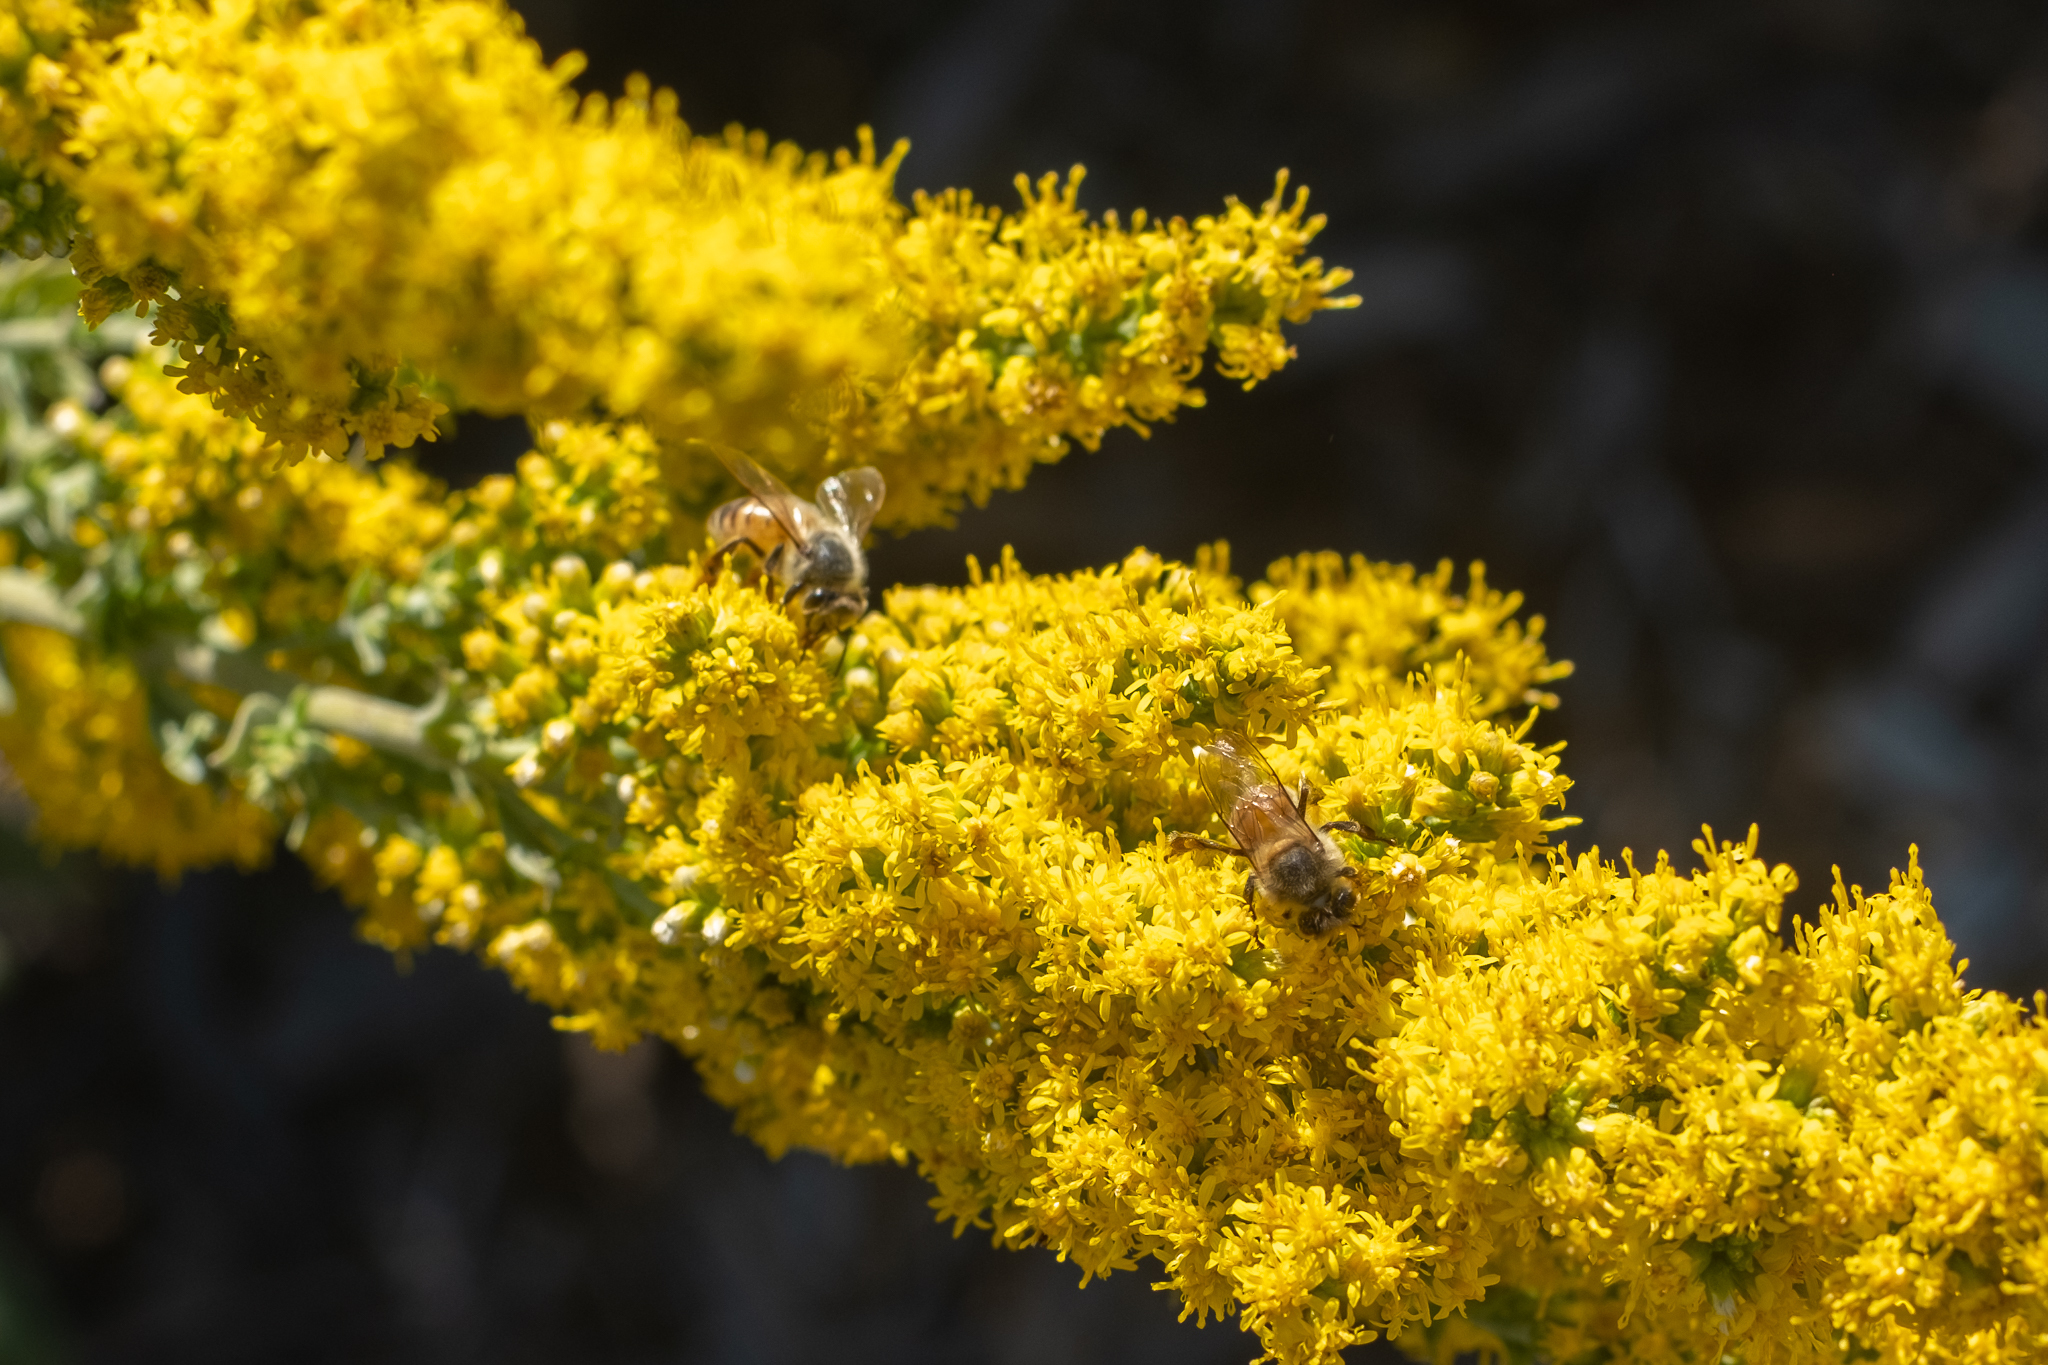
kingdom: Animalia
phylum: Arthropoda
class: Insecta
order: Hymenoptera
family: Apidae
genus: Apis
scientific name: Apis mellifera
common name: Honey bee
